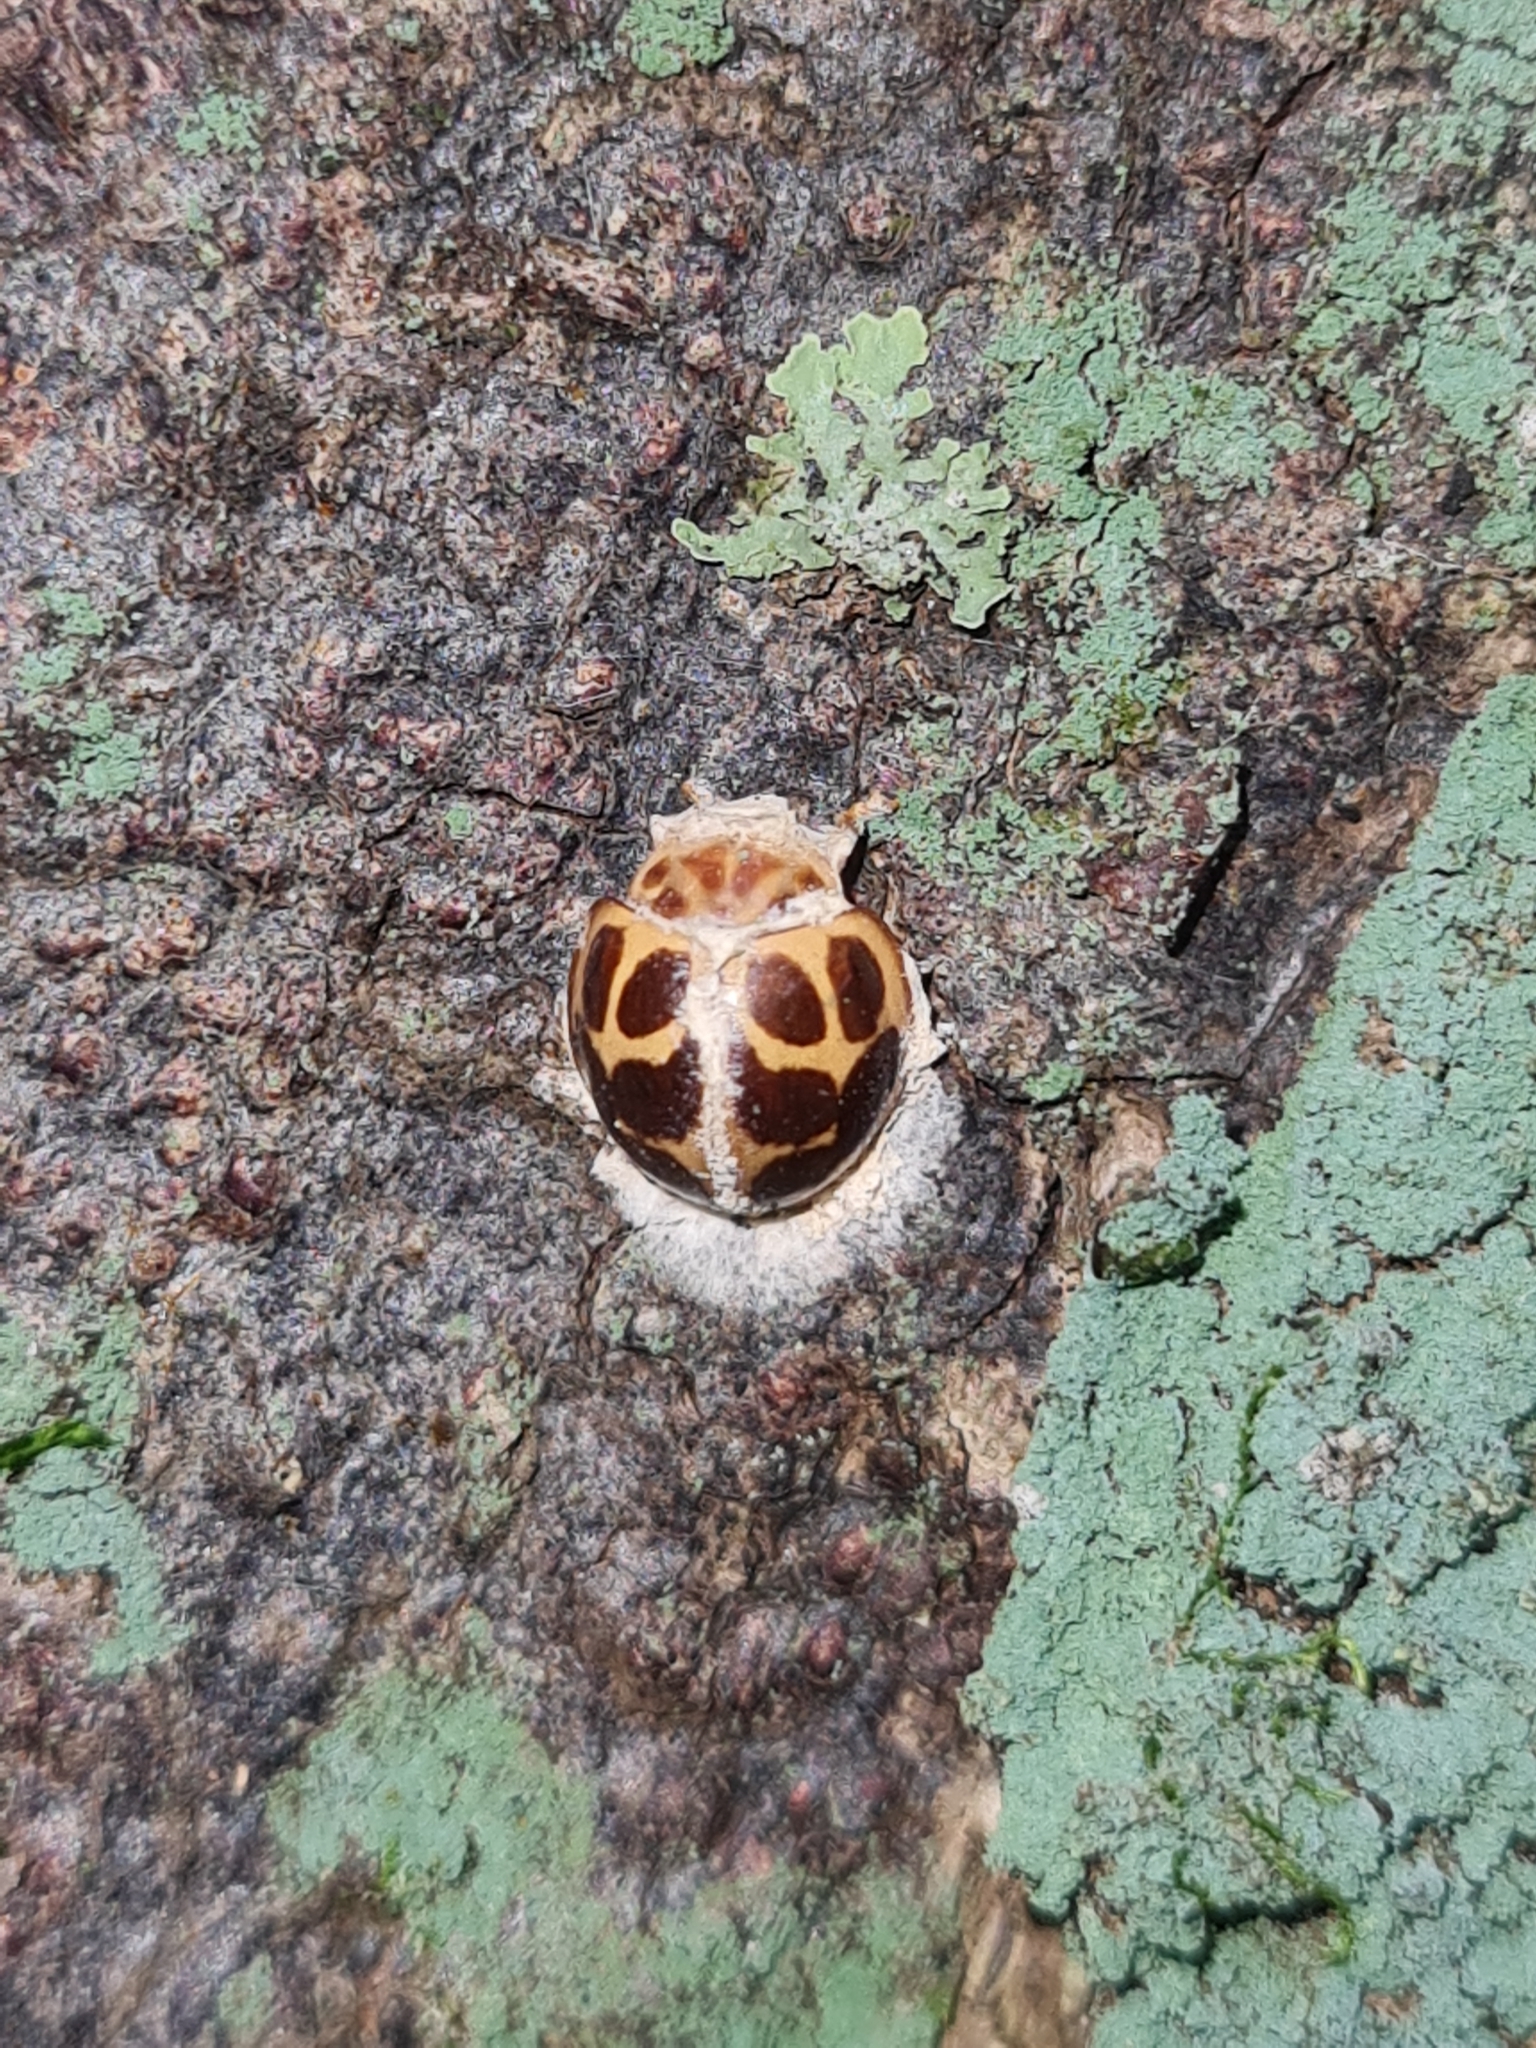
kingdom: Animalia
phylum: Arthropoda
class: Insecta
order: Coleoptera
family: Coccinellidae
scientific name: Coccinellidae
